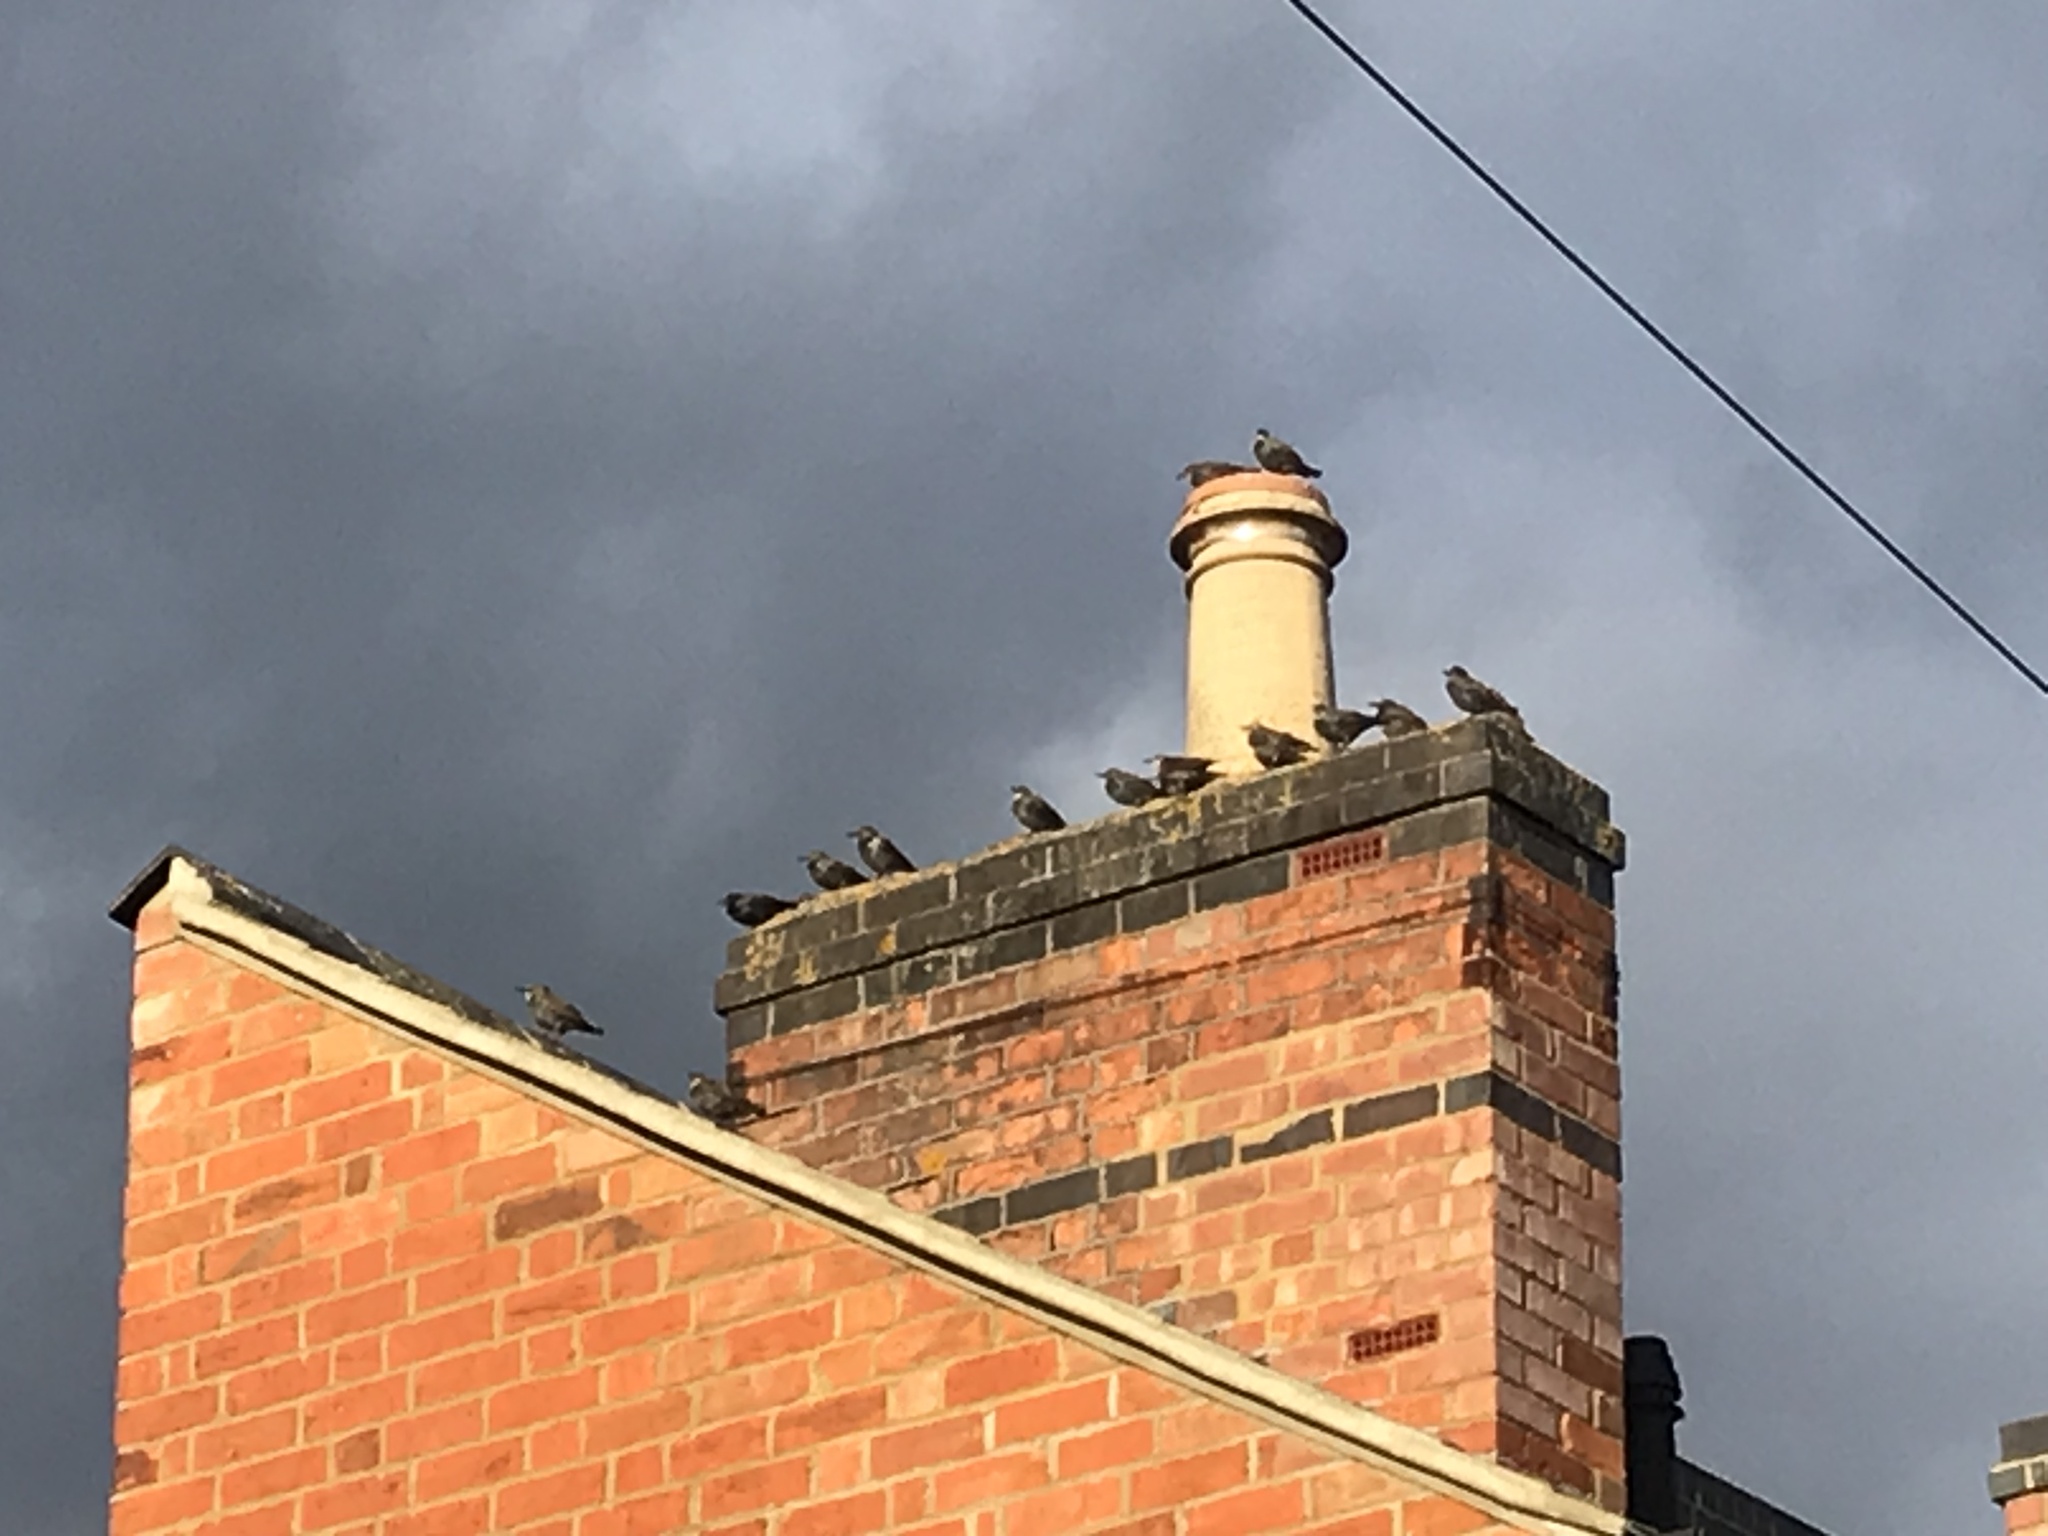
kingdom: Animalia
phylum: Chordata
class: Aves
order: Passeriformes
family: Sturnidae
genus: Sturnus
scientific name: Sturnus vulgaris
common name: Common starling
